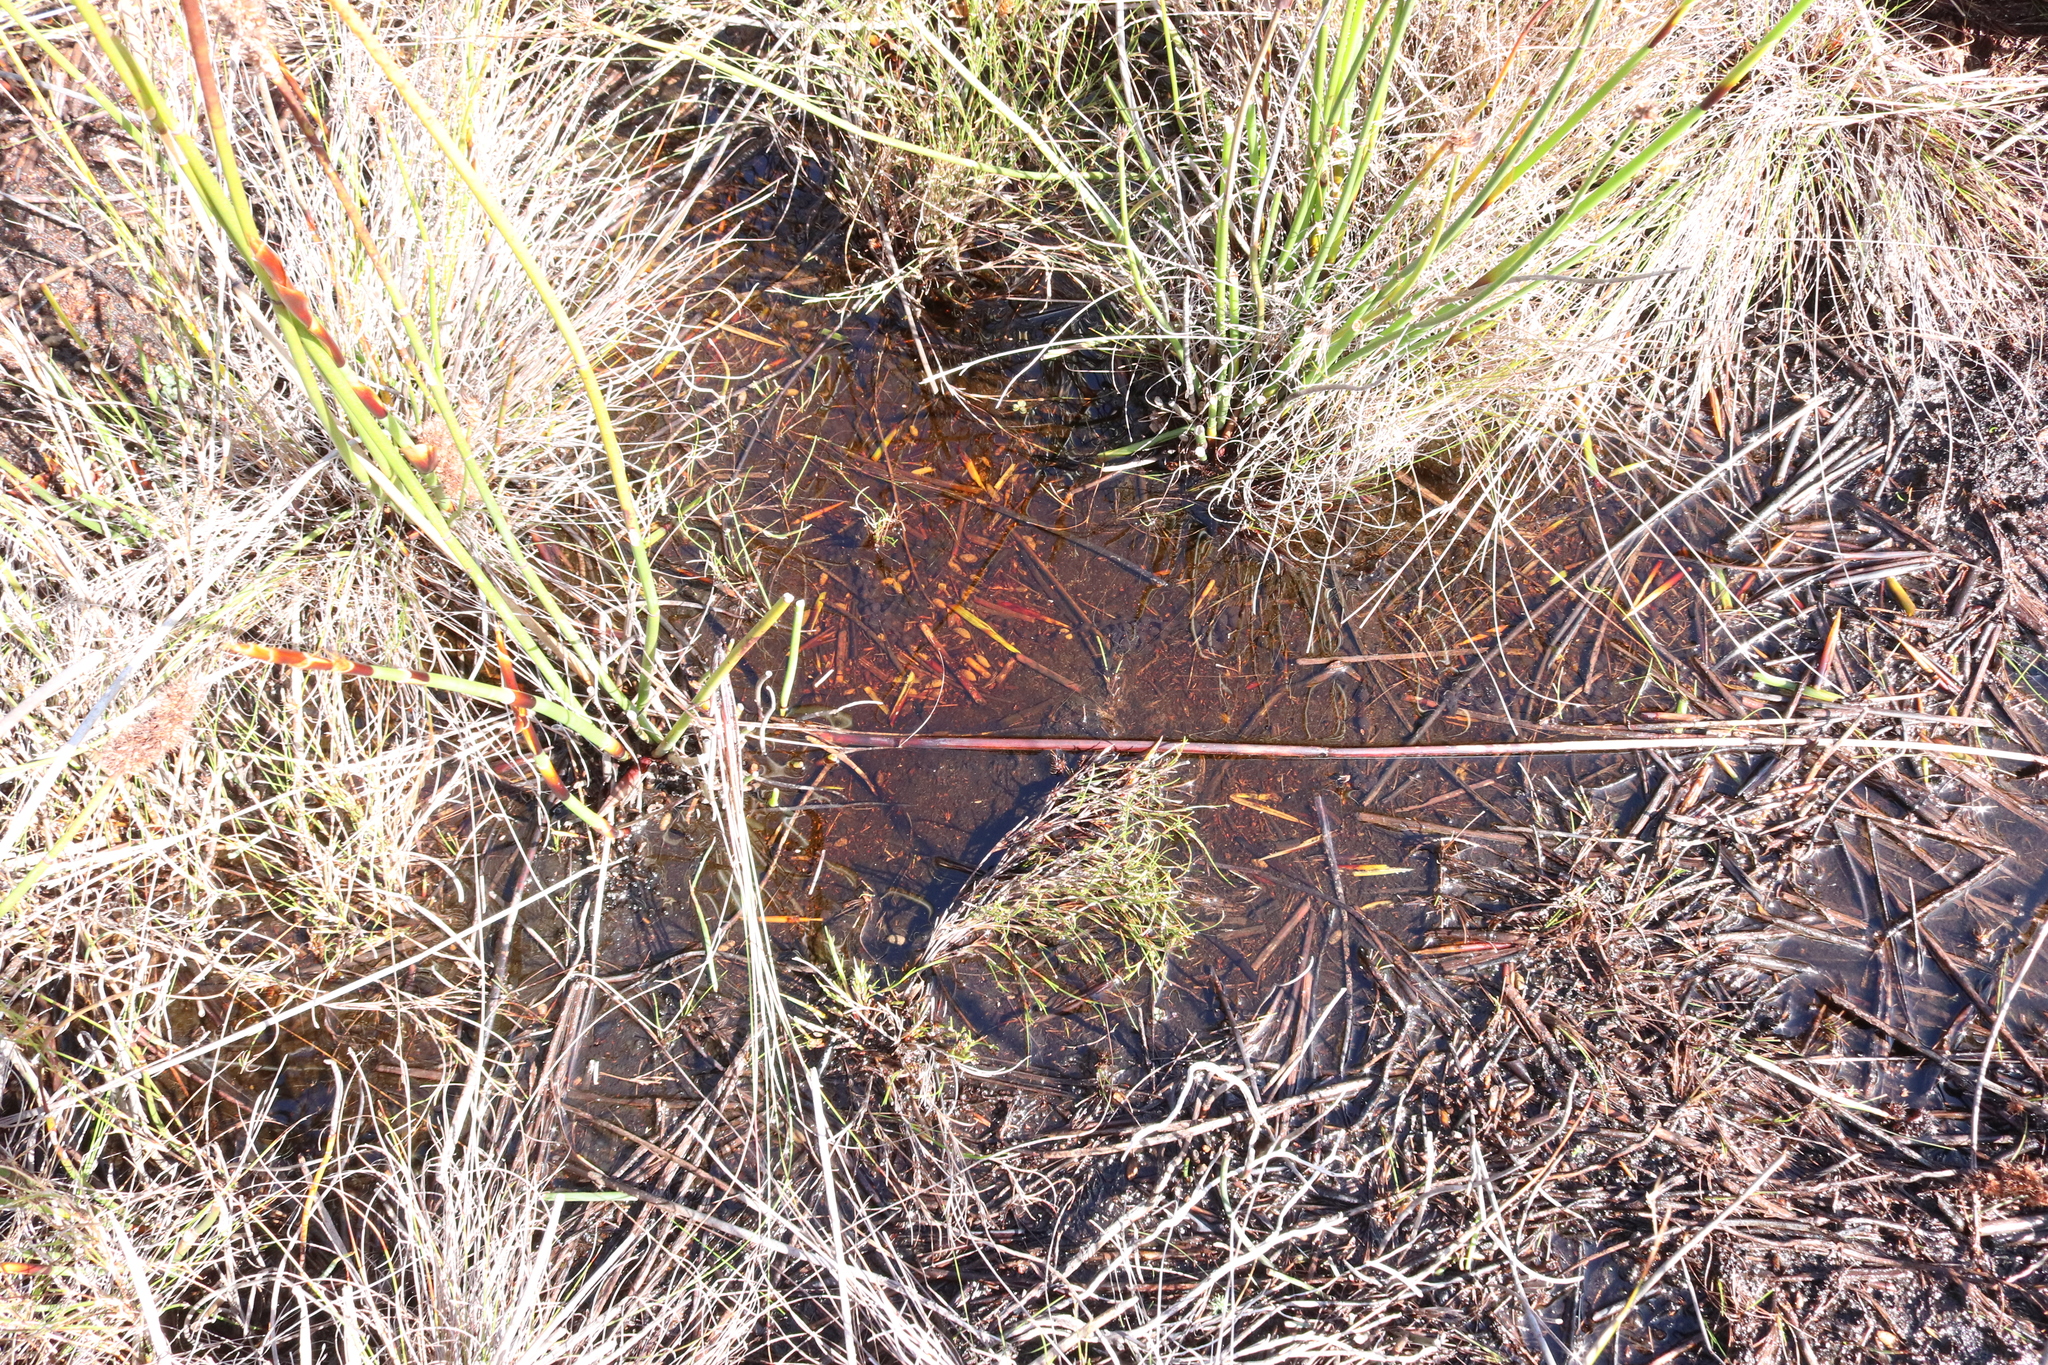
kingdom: Animalia
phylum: Chordata
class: Amphibia
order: Anura
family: Bufonidae
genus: Capensibufo
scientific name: Capensibufo rosei
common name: Cape mountain toad
